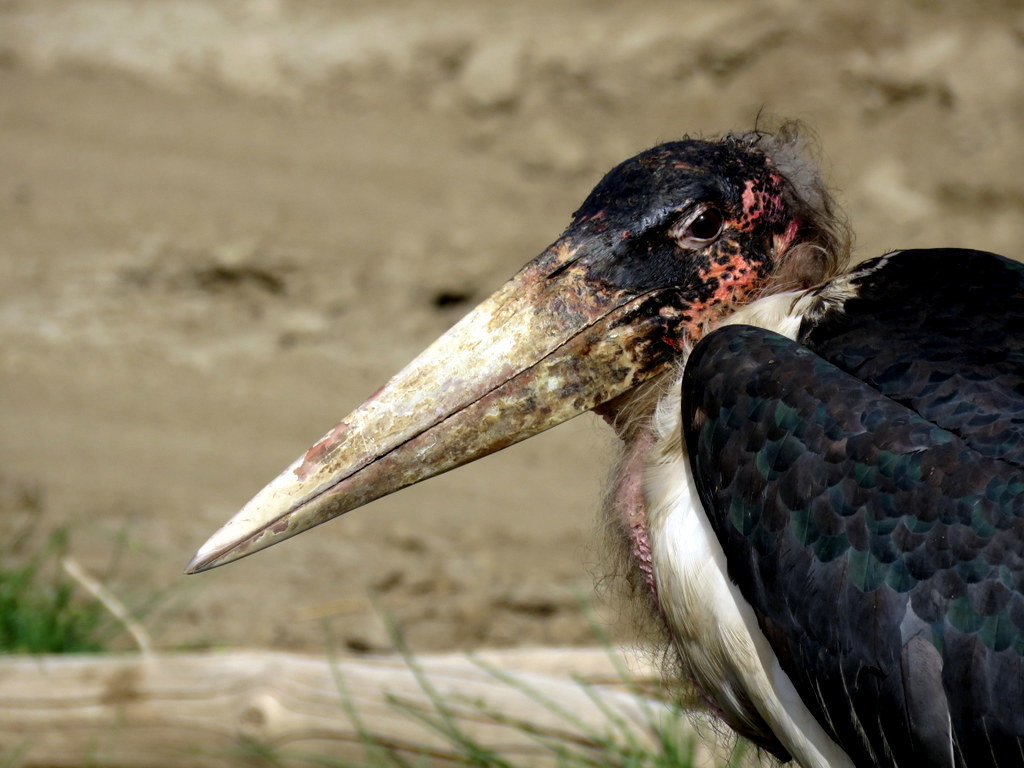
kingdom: Animalia
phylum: Chordata
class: Aves
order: Ciconiiformes
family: Ciconiidae
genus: Leptoptilos
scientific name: Leptoptilos crumenifer
